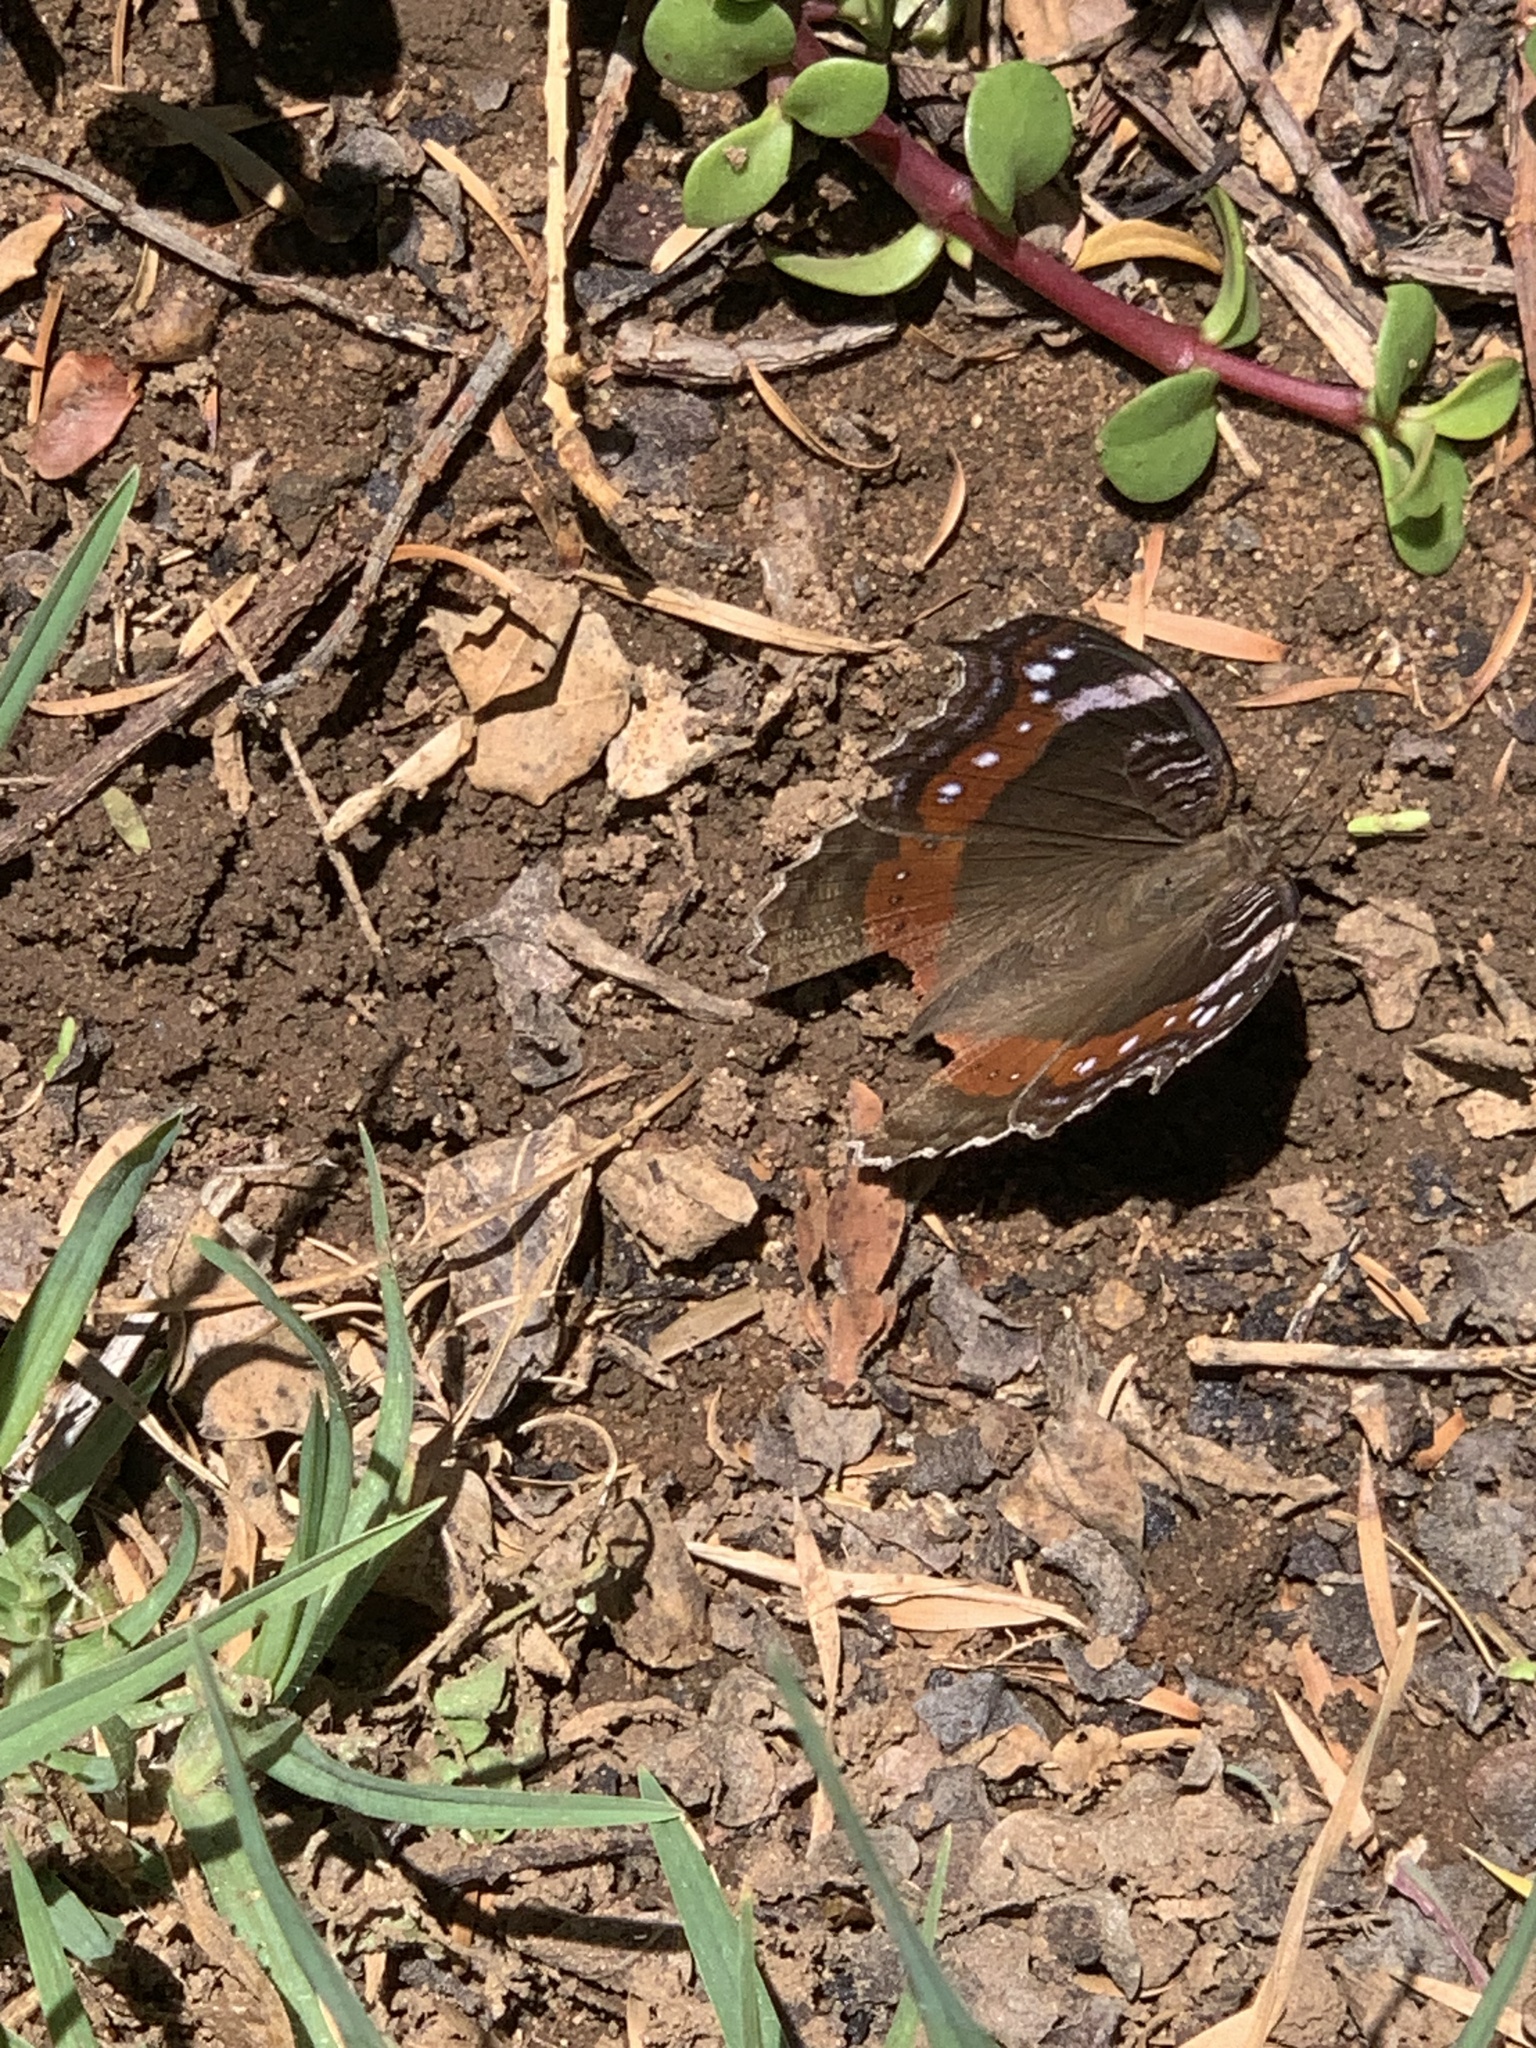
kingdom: Animalia
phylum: Arthropoda
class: Insecta
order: Lepidoptera
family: Nymphalidae
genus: Junonia
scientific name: Junonia archesia
